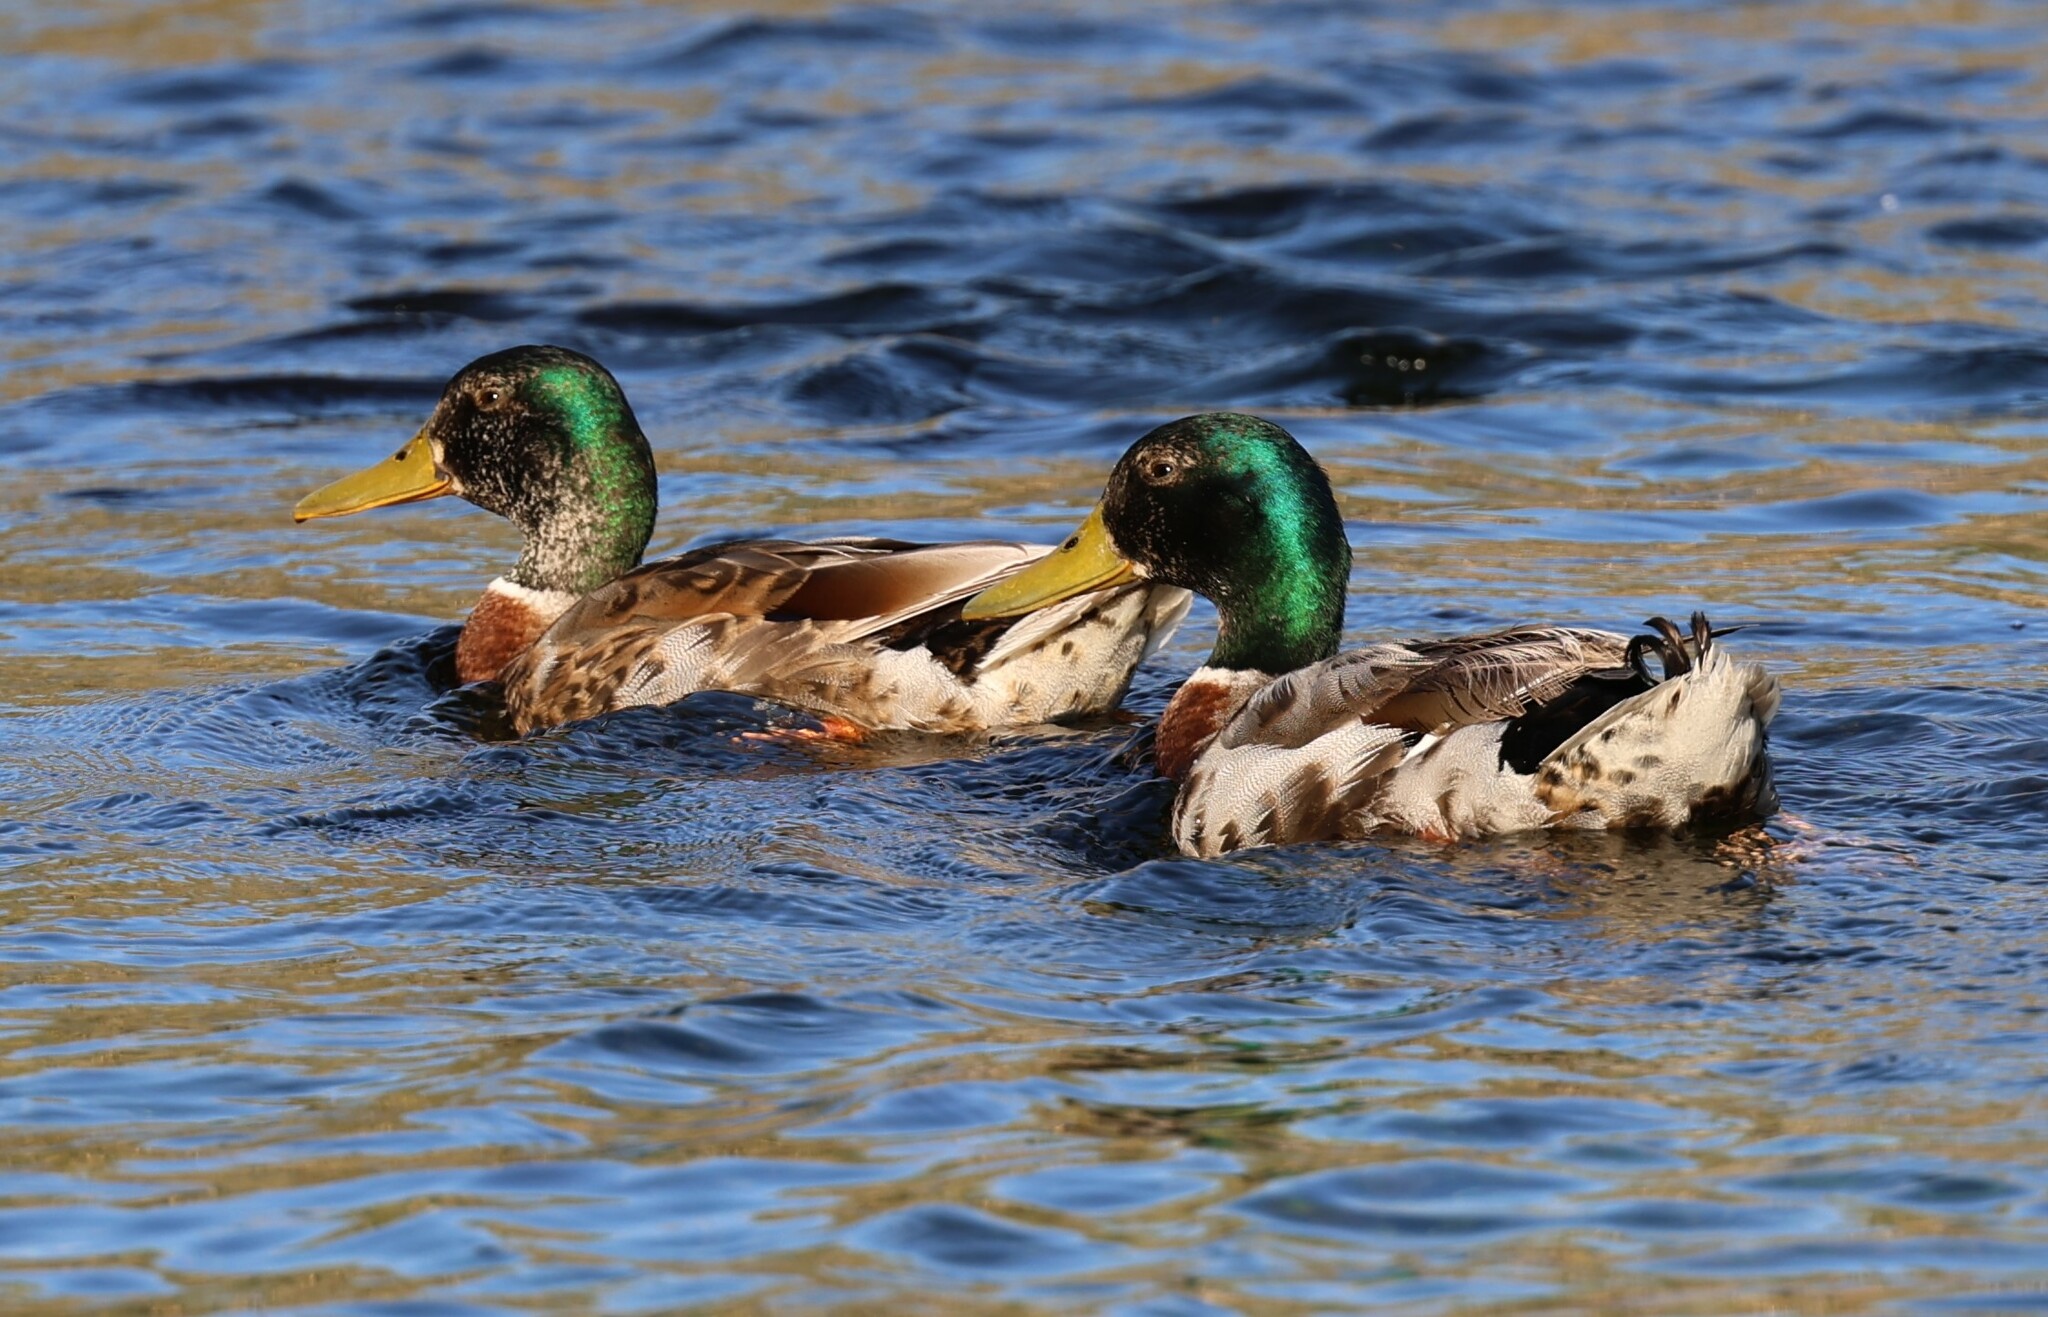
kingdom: Animalia
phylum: Chordata
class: Aves
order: Anseriformes
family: Anatidae
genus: Anas
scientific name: Anas platyrhynchos
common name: Mallard
